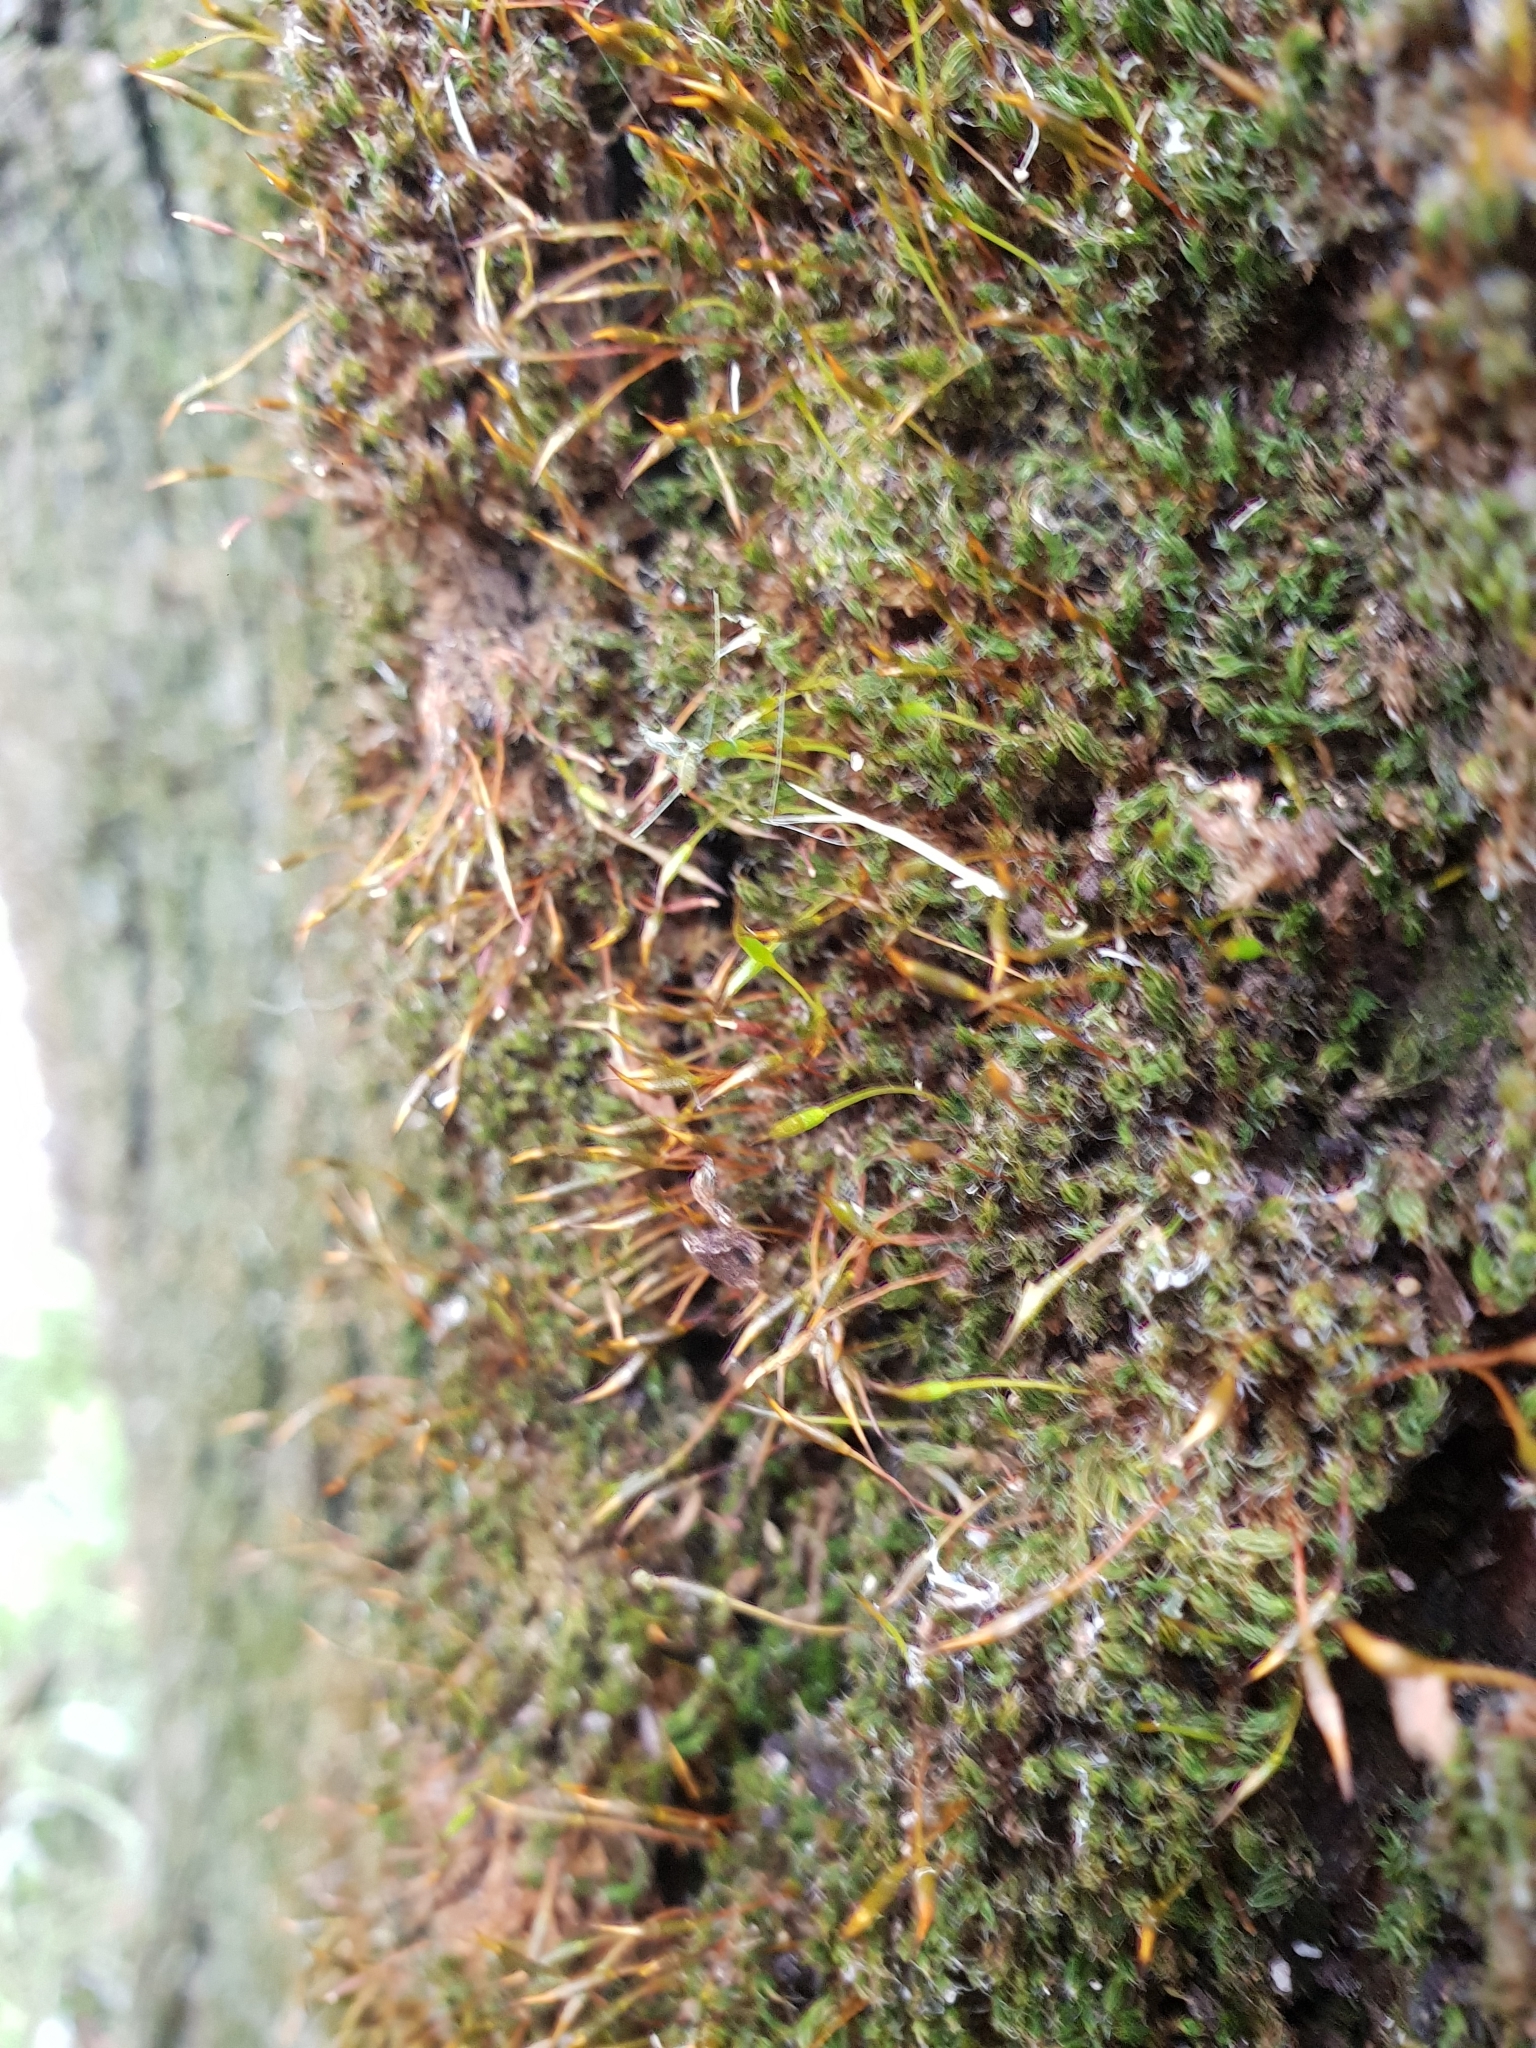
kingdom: Plantae
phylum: Bryophyta
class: Bryopsida
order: Pottiales
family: Pottiaceae
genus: Tortula
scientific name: Tortula muralis
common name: Wall screw-moss
